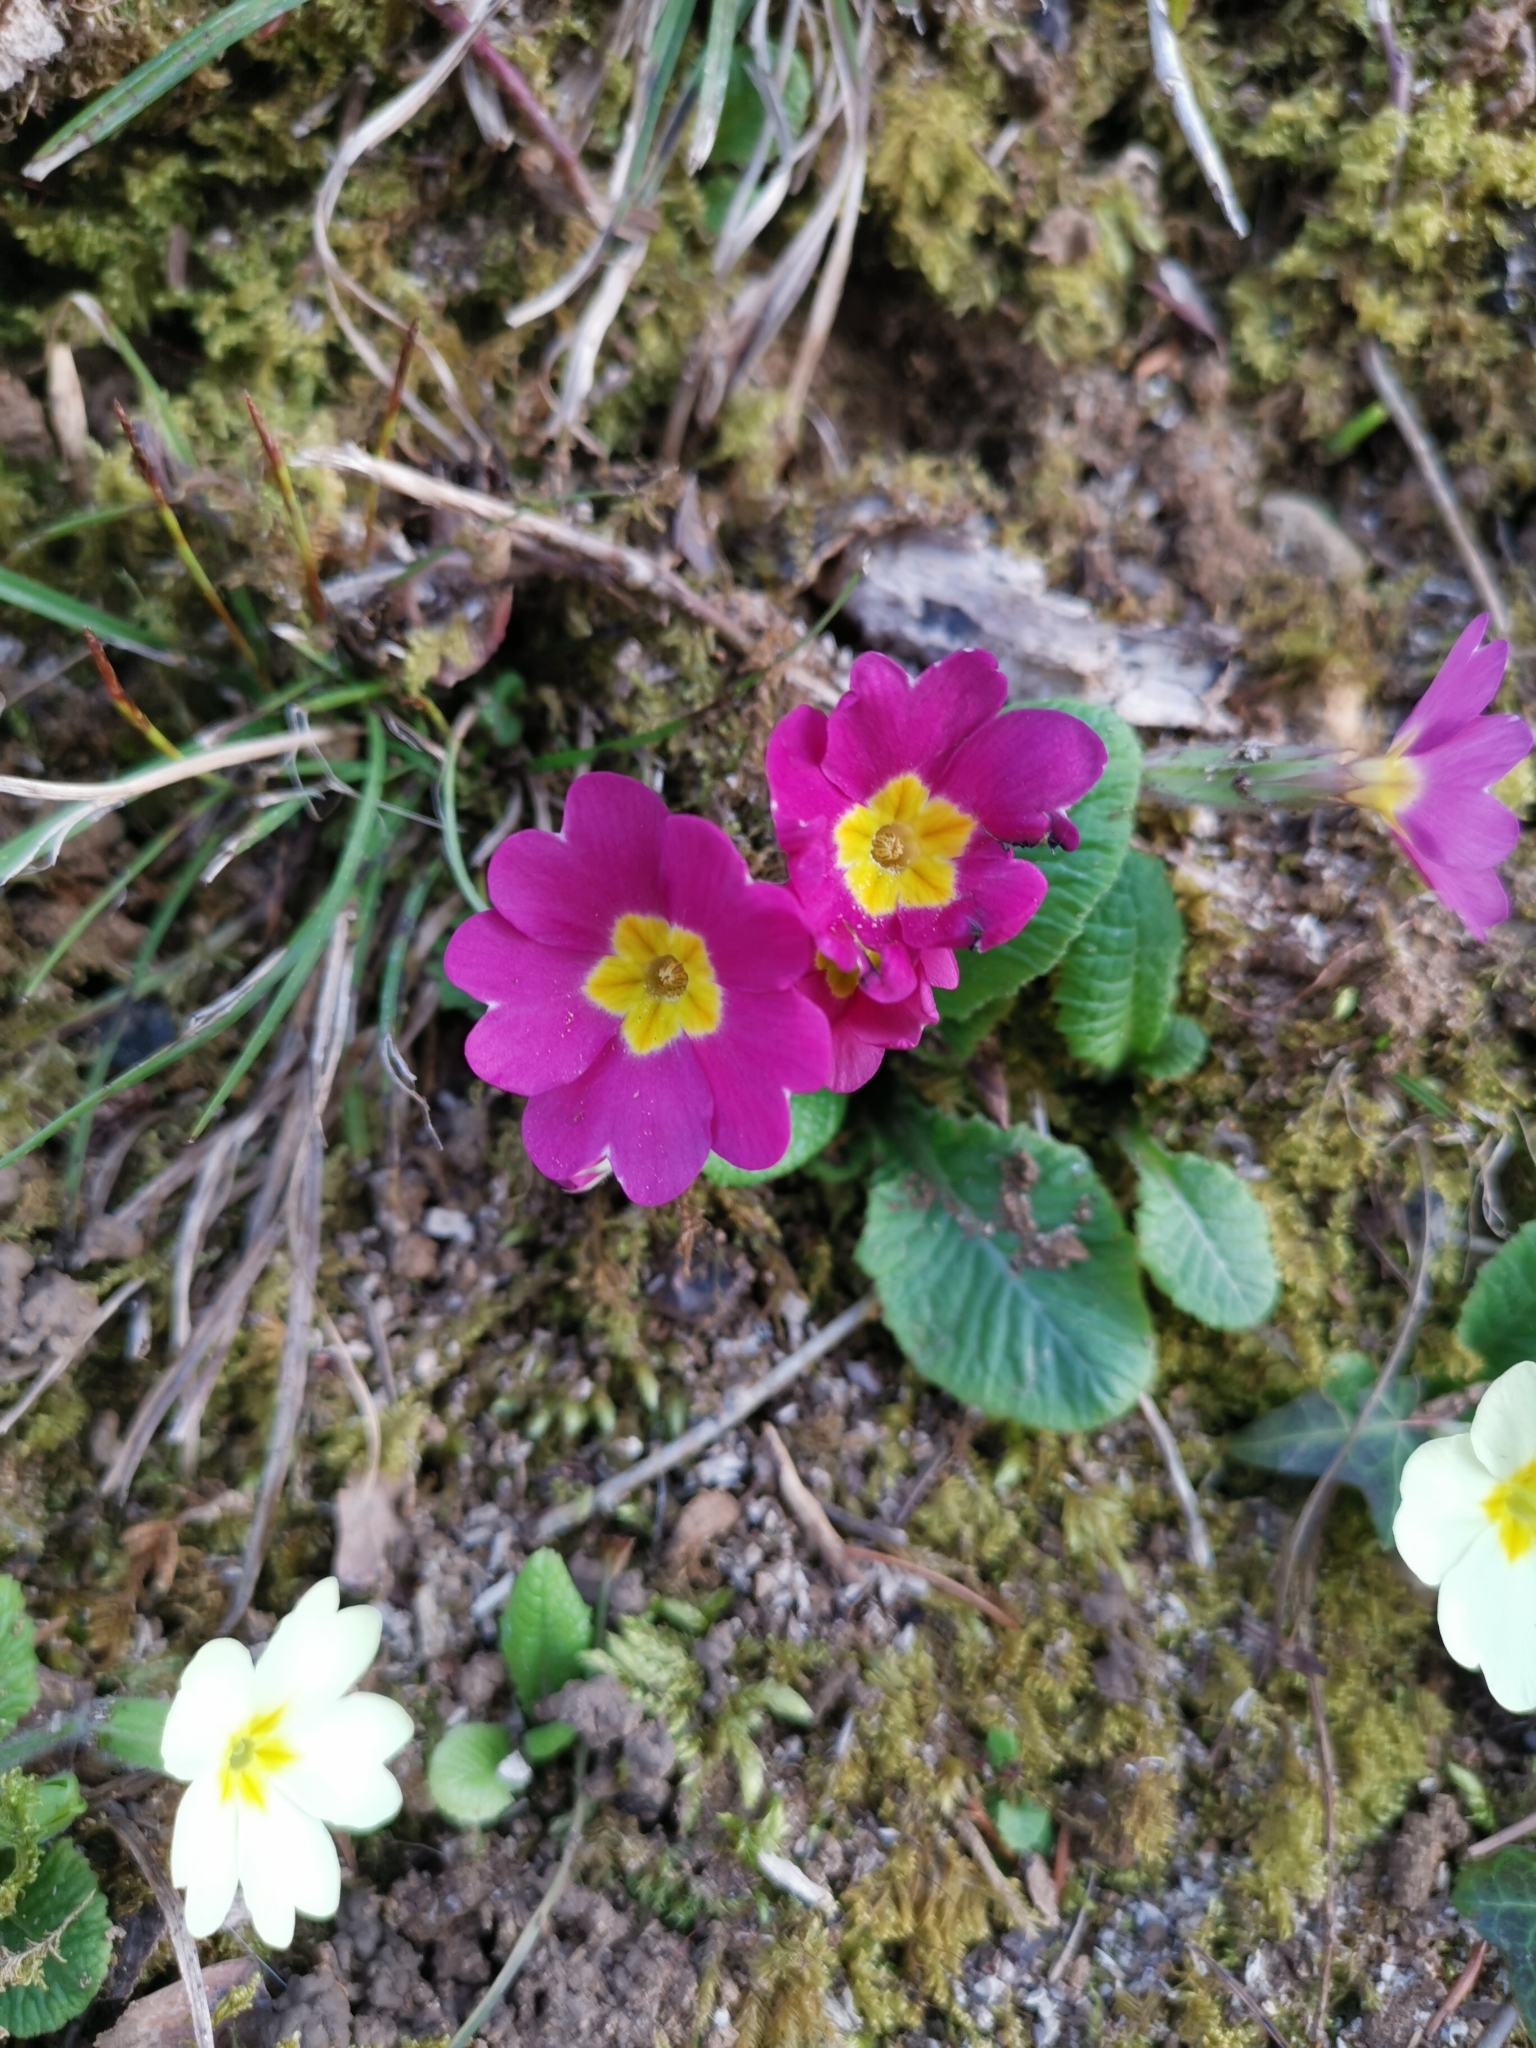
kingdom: Plantae
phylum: Tracheophyta
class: Magnoliopsida
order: Ericales
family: Primulaceae
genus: Primula
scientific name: Primula vulgaris
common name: Primrose
